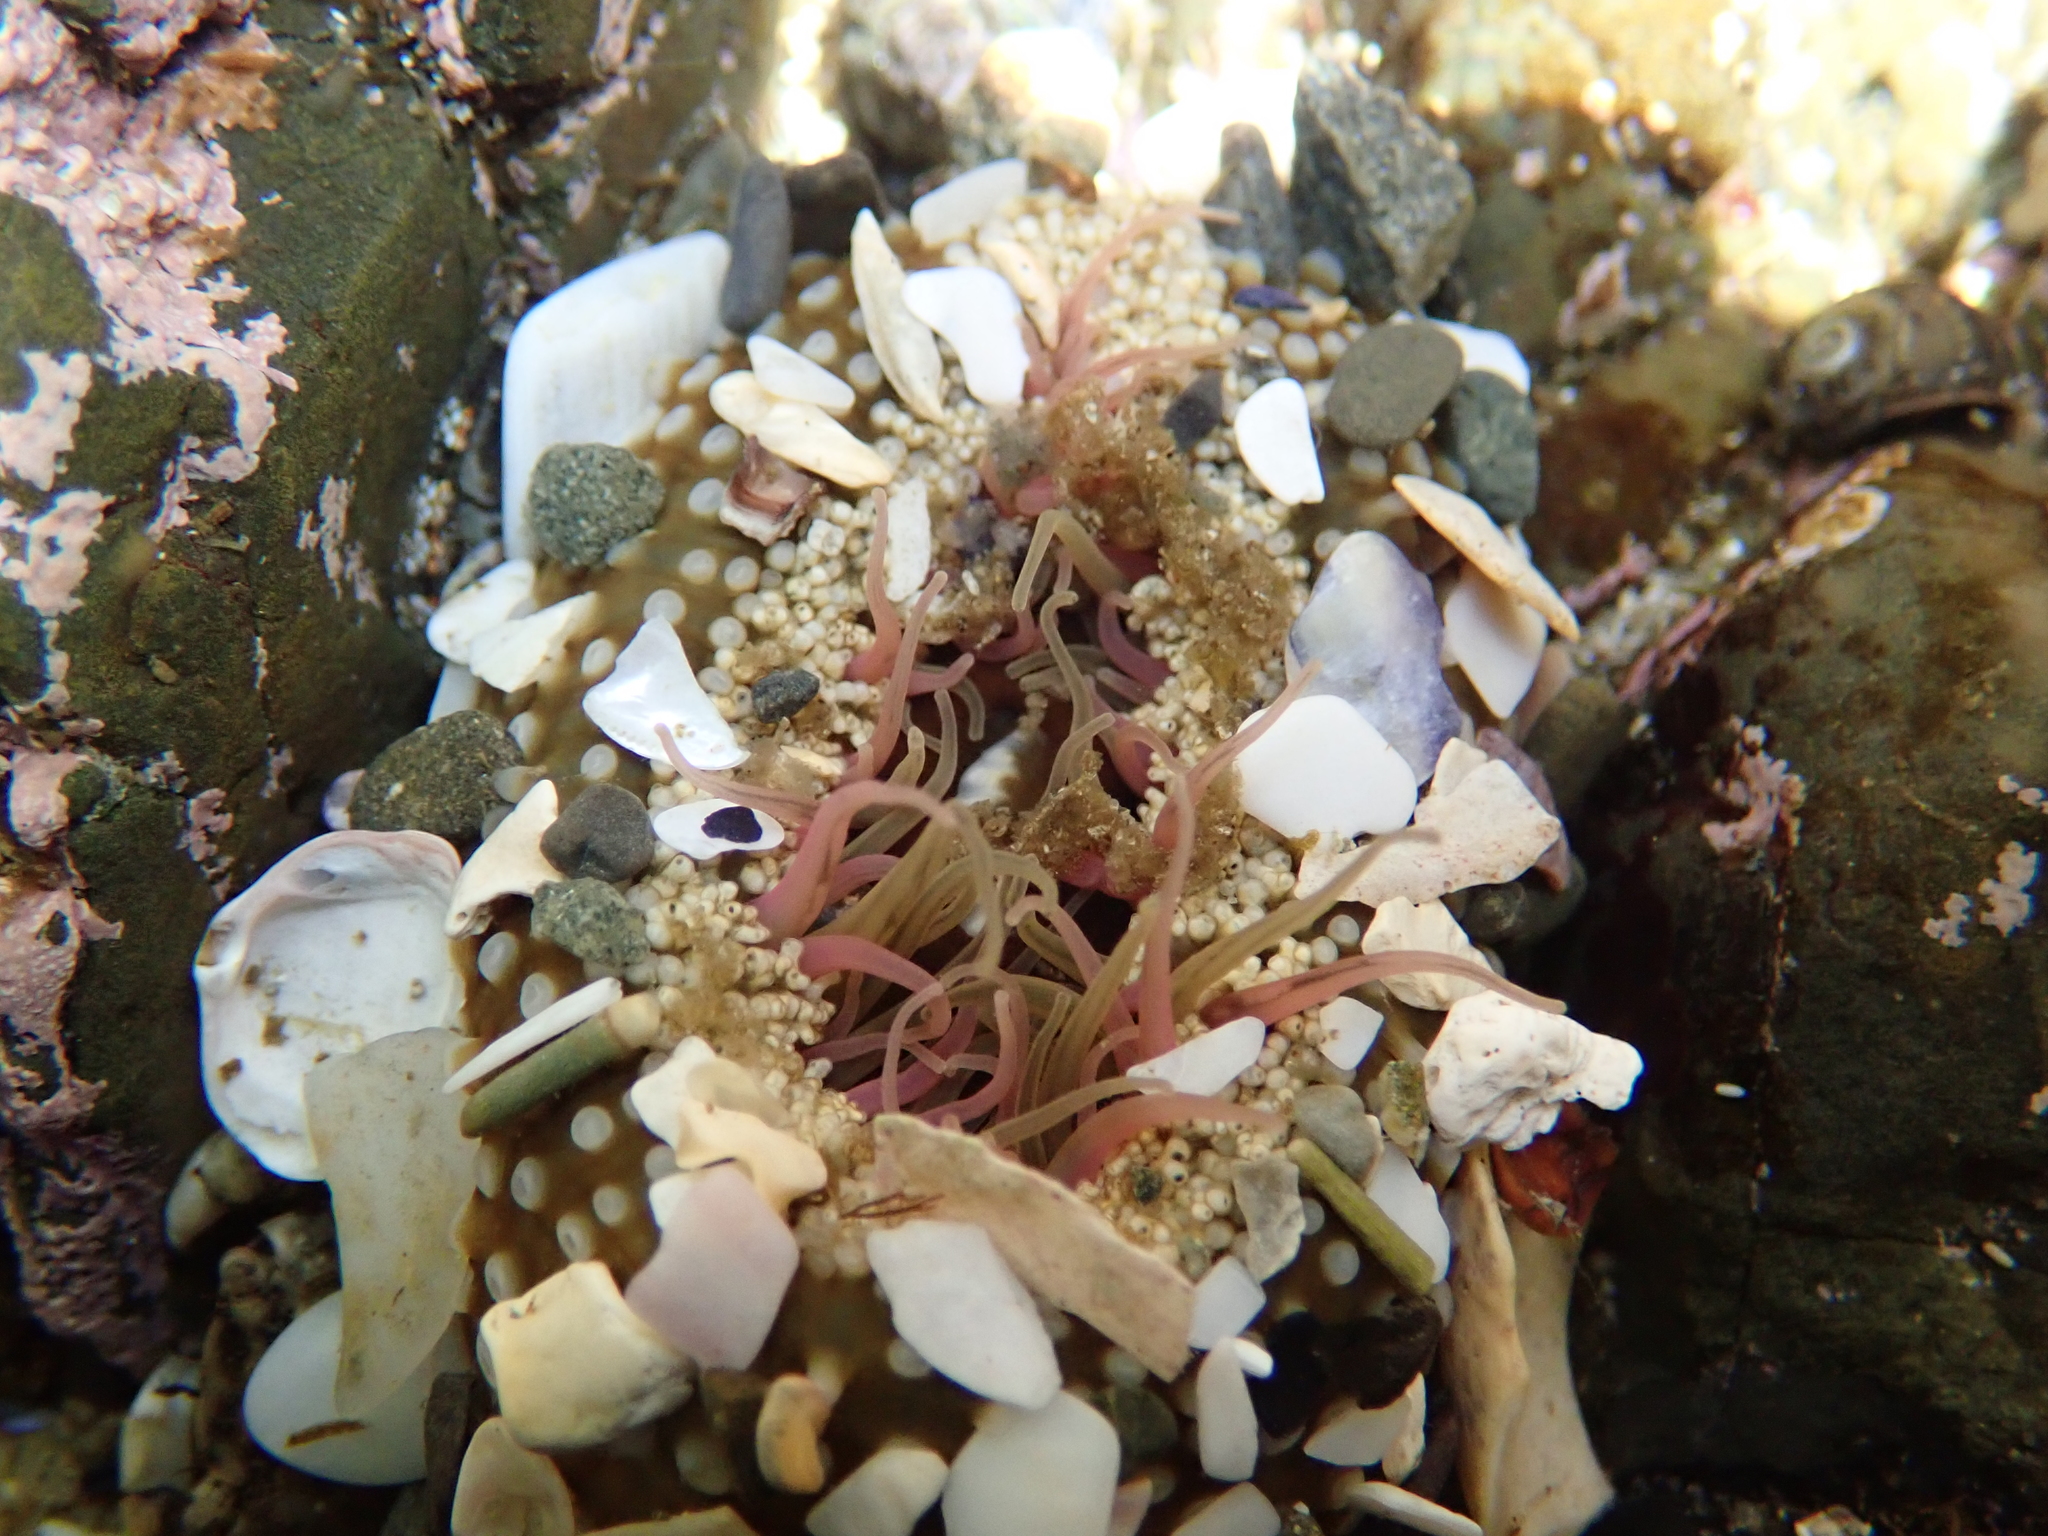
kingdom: Animalia
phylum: Cnidaria
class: Anthozoa
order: Actiniaria
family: Actiniidae
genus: Oulactis
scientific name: Oulactis muscosa
